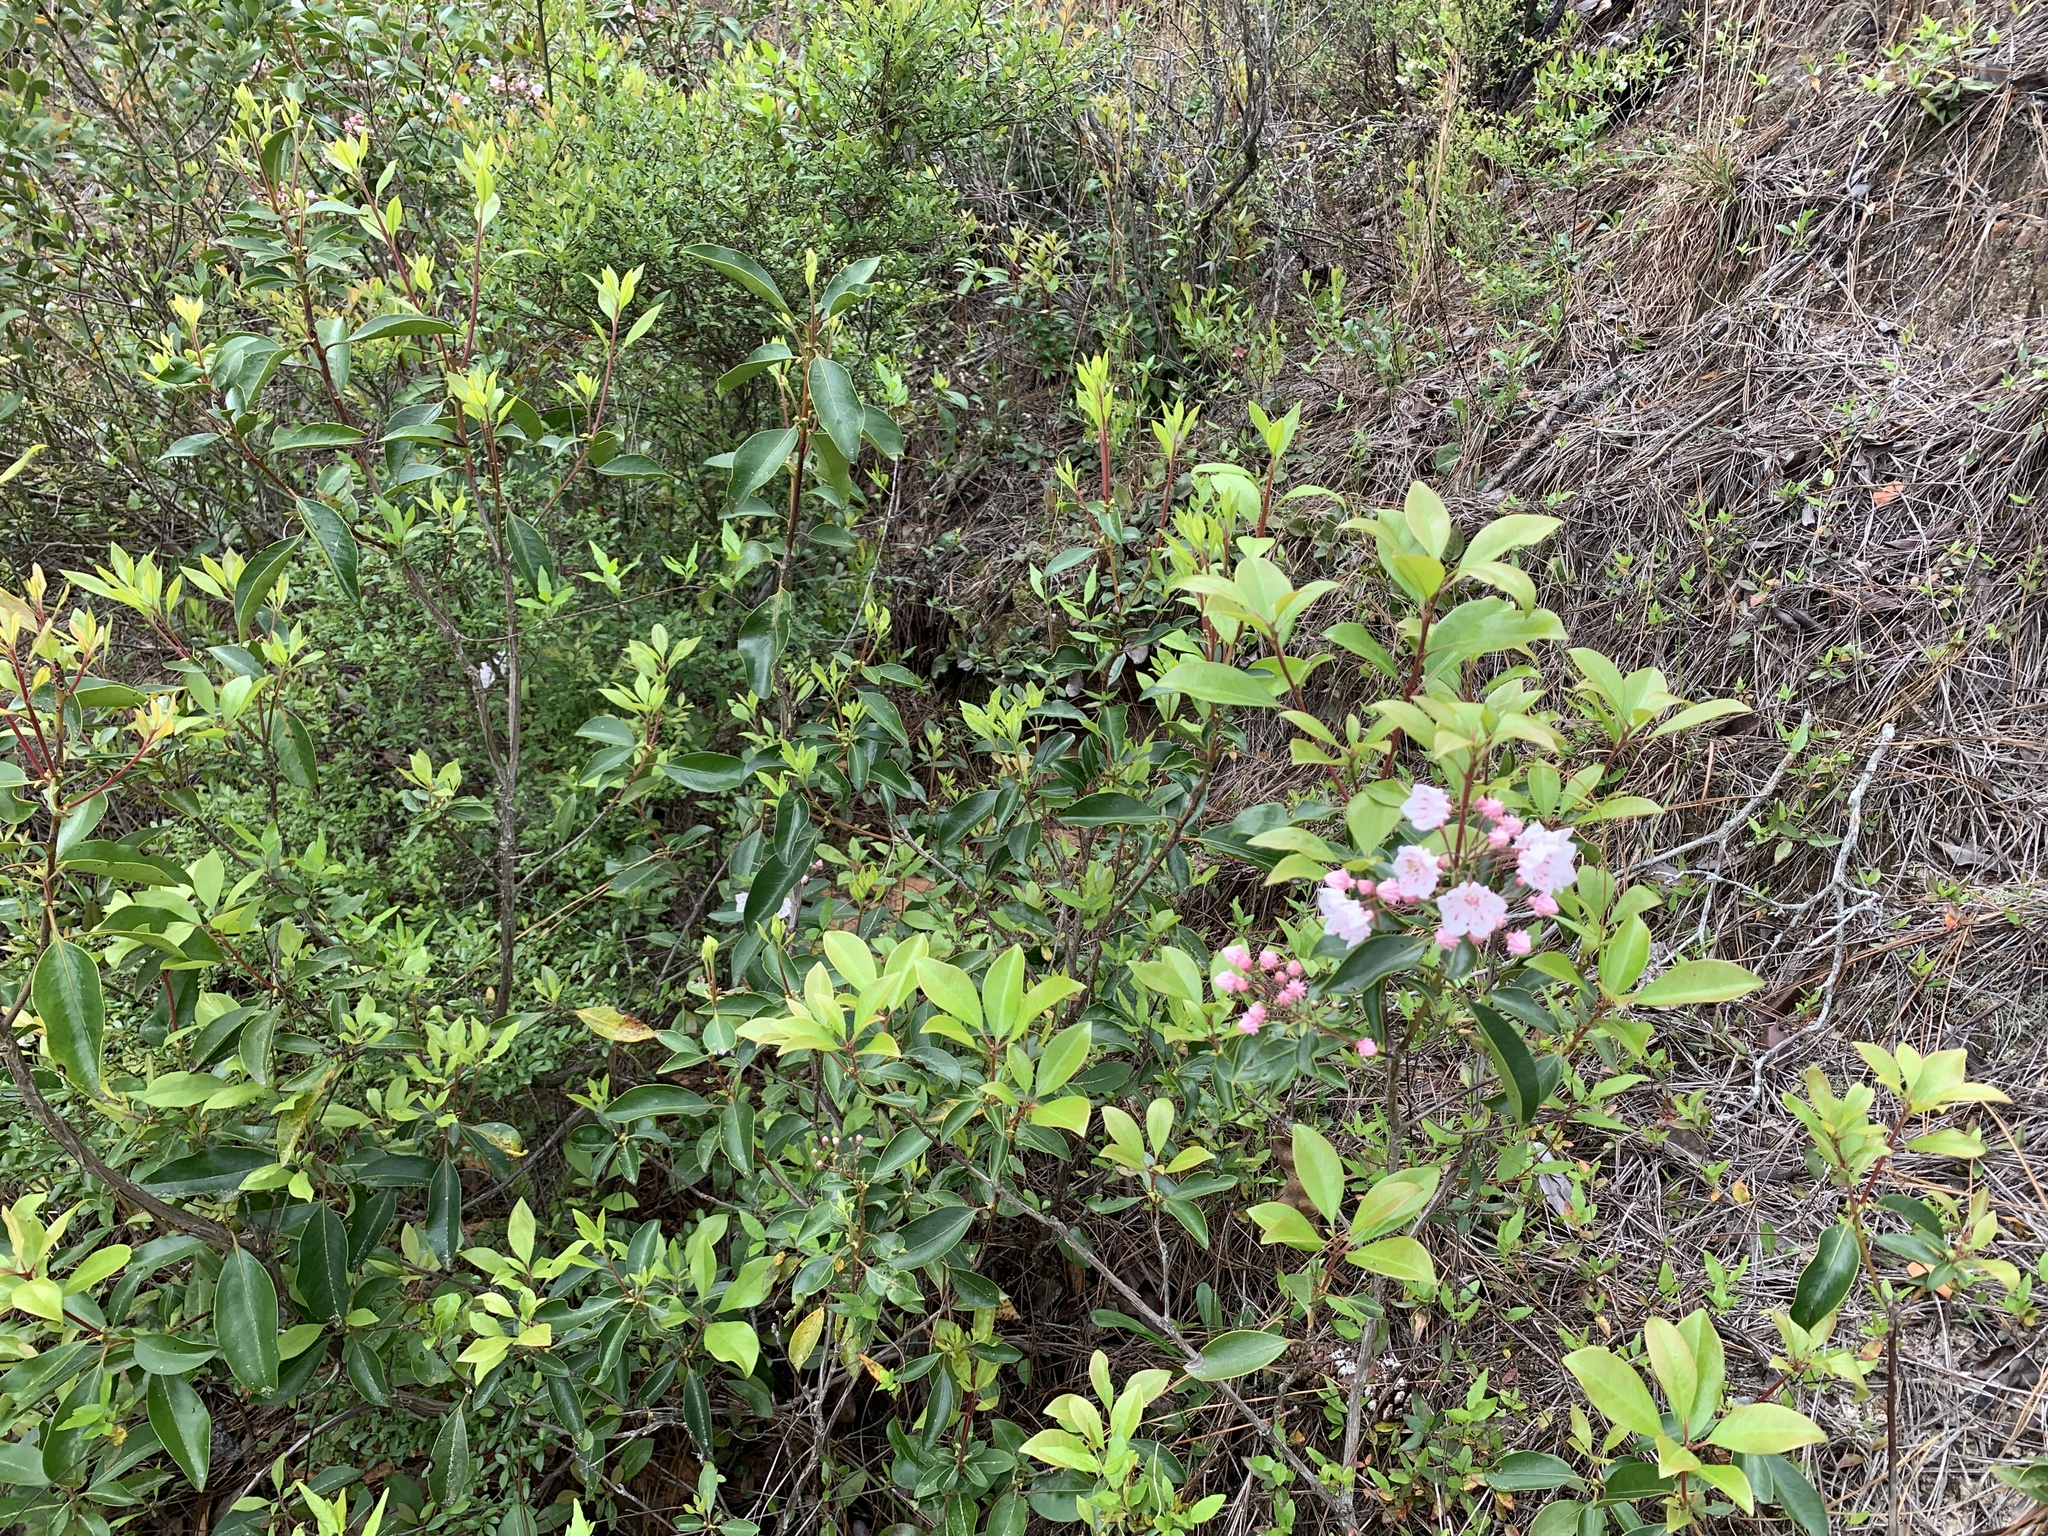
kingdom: Plantae
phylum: Tracheophyta
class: Magnoliopsida
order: Ericales
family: Ericaceae
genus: Kalmia
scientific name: Kalmia latifolia
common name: Mountain-laurel
